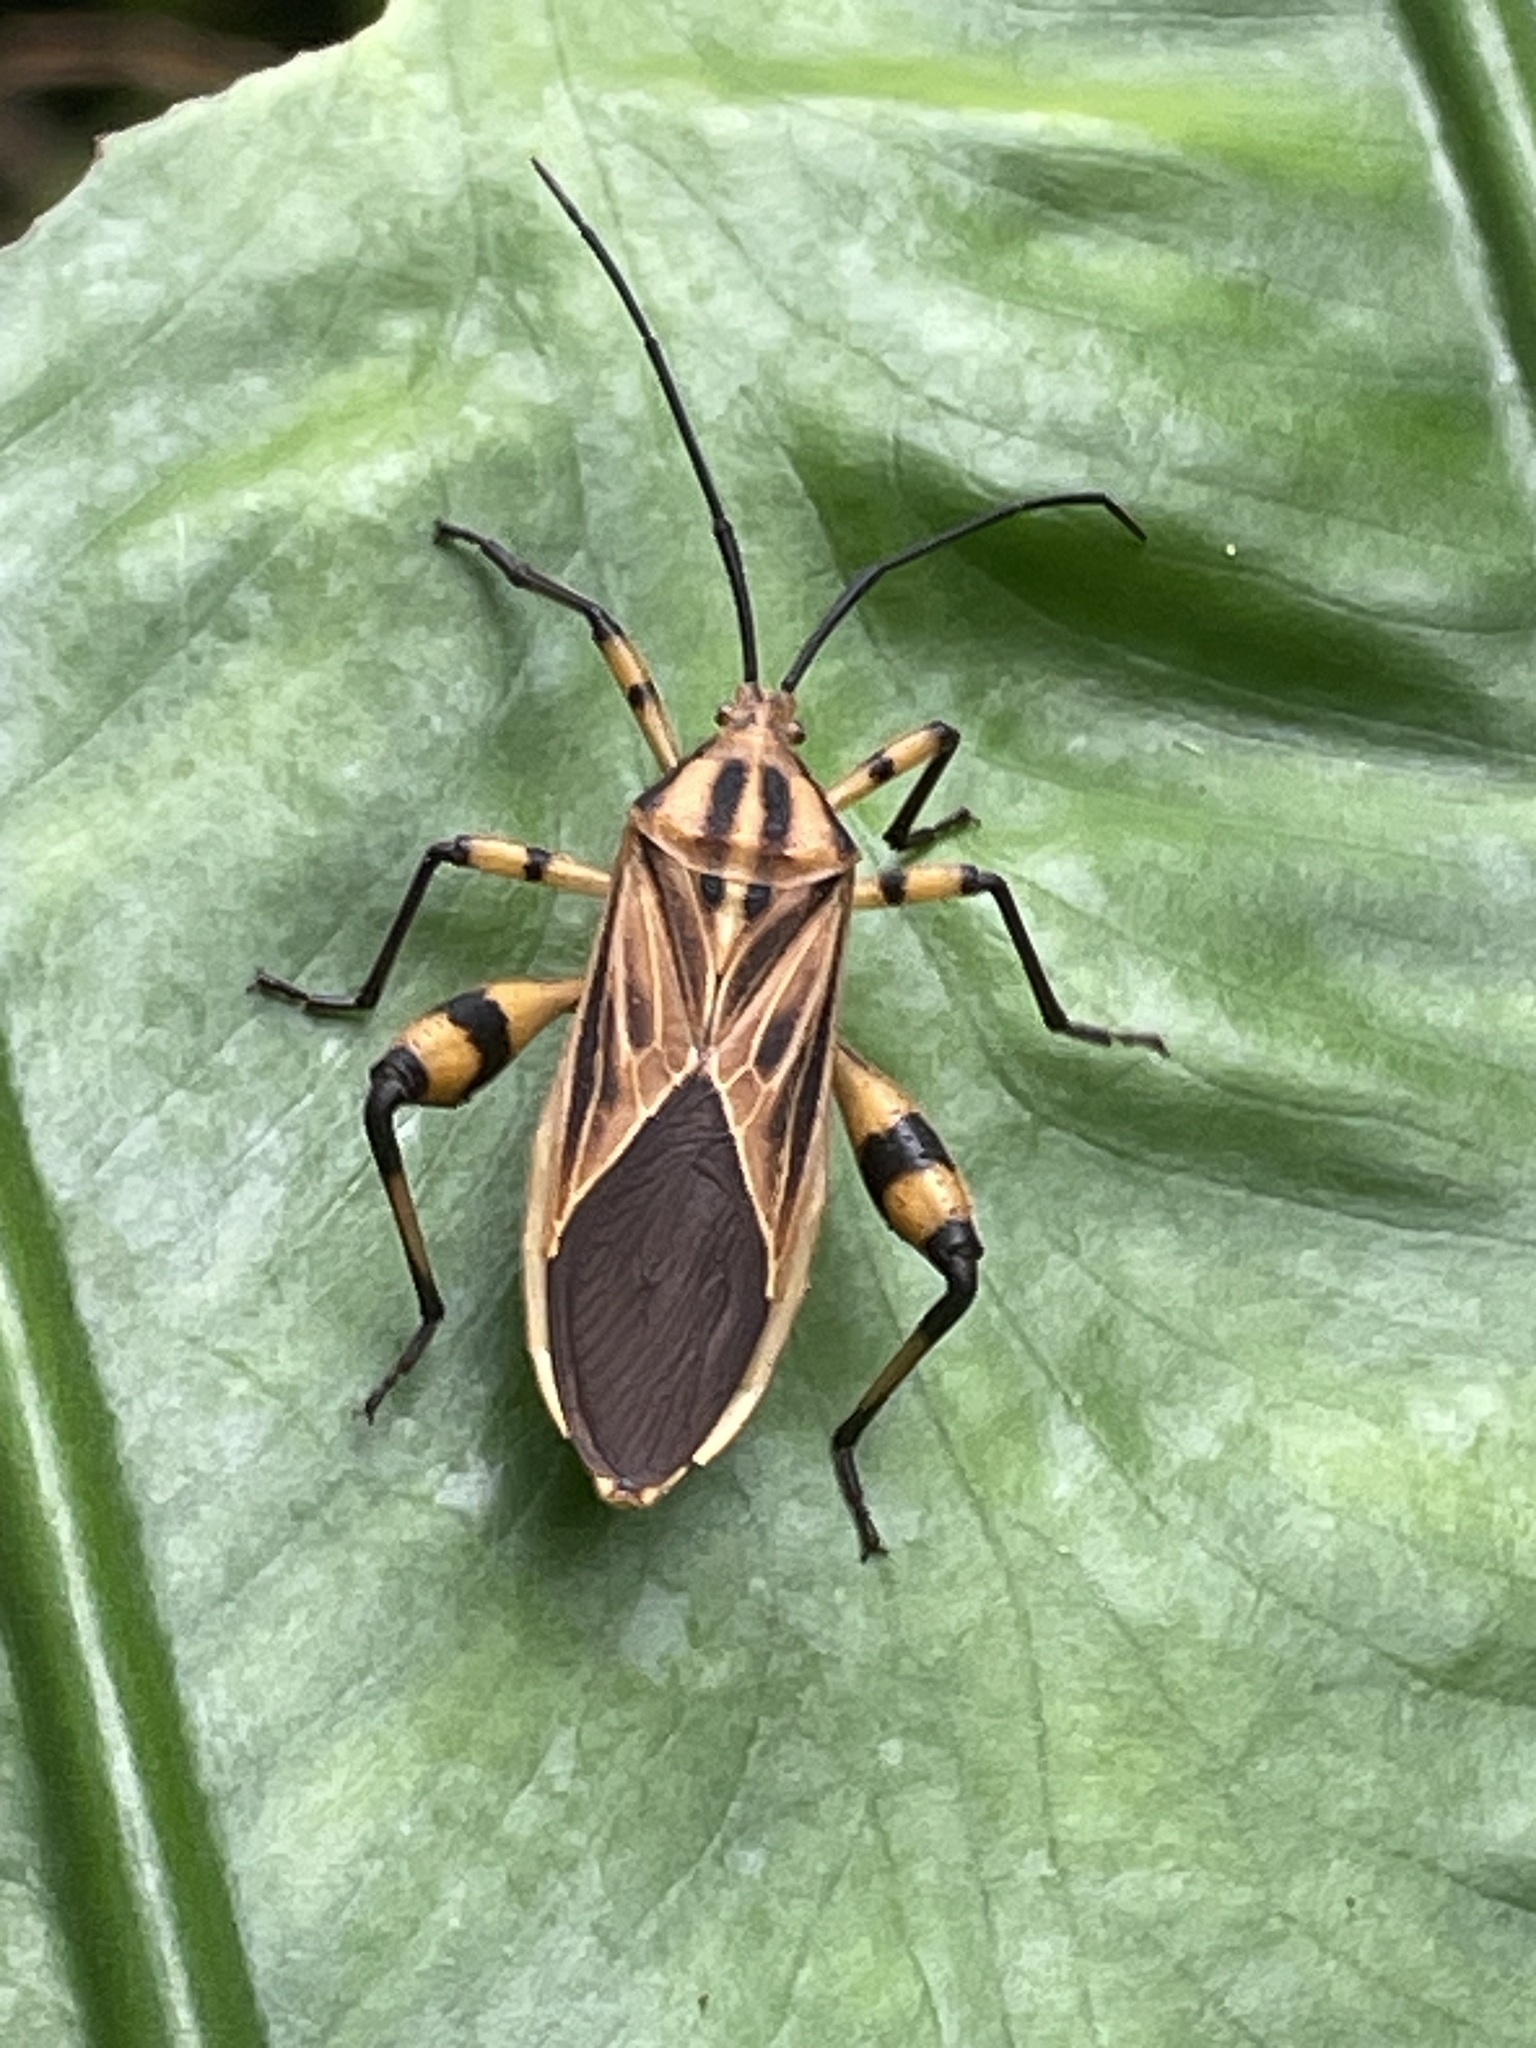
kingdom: Animalia
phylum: Arthropoda
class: Insecta
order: Hemiptera
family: Coreidae
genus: Physomerus
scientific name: Physomerus grossipes
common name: Squash bug
